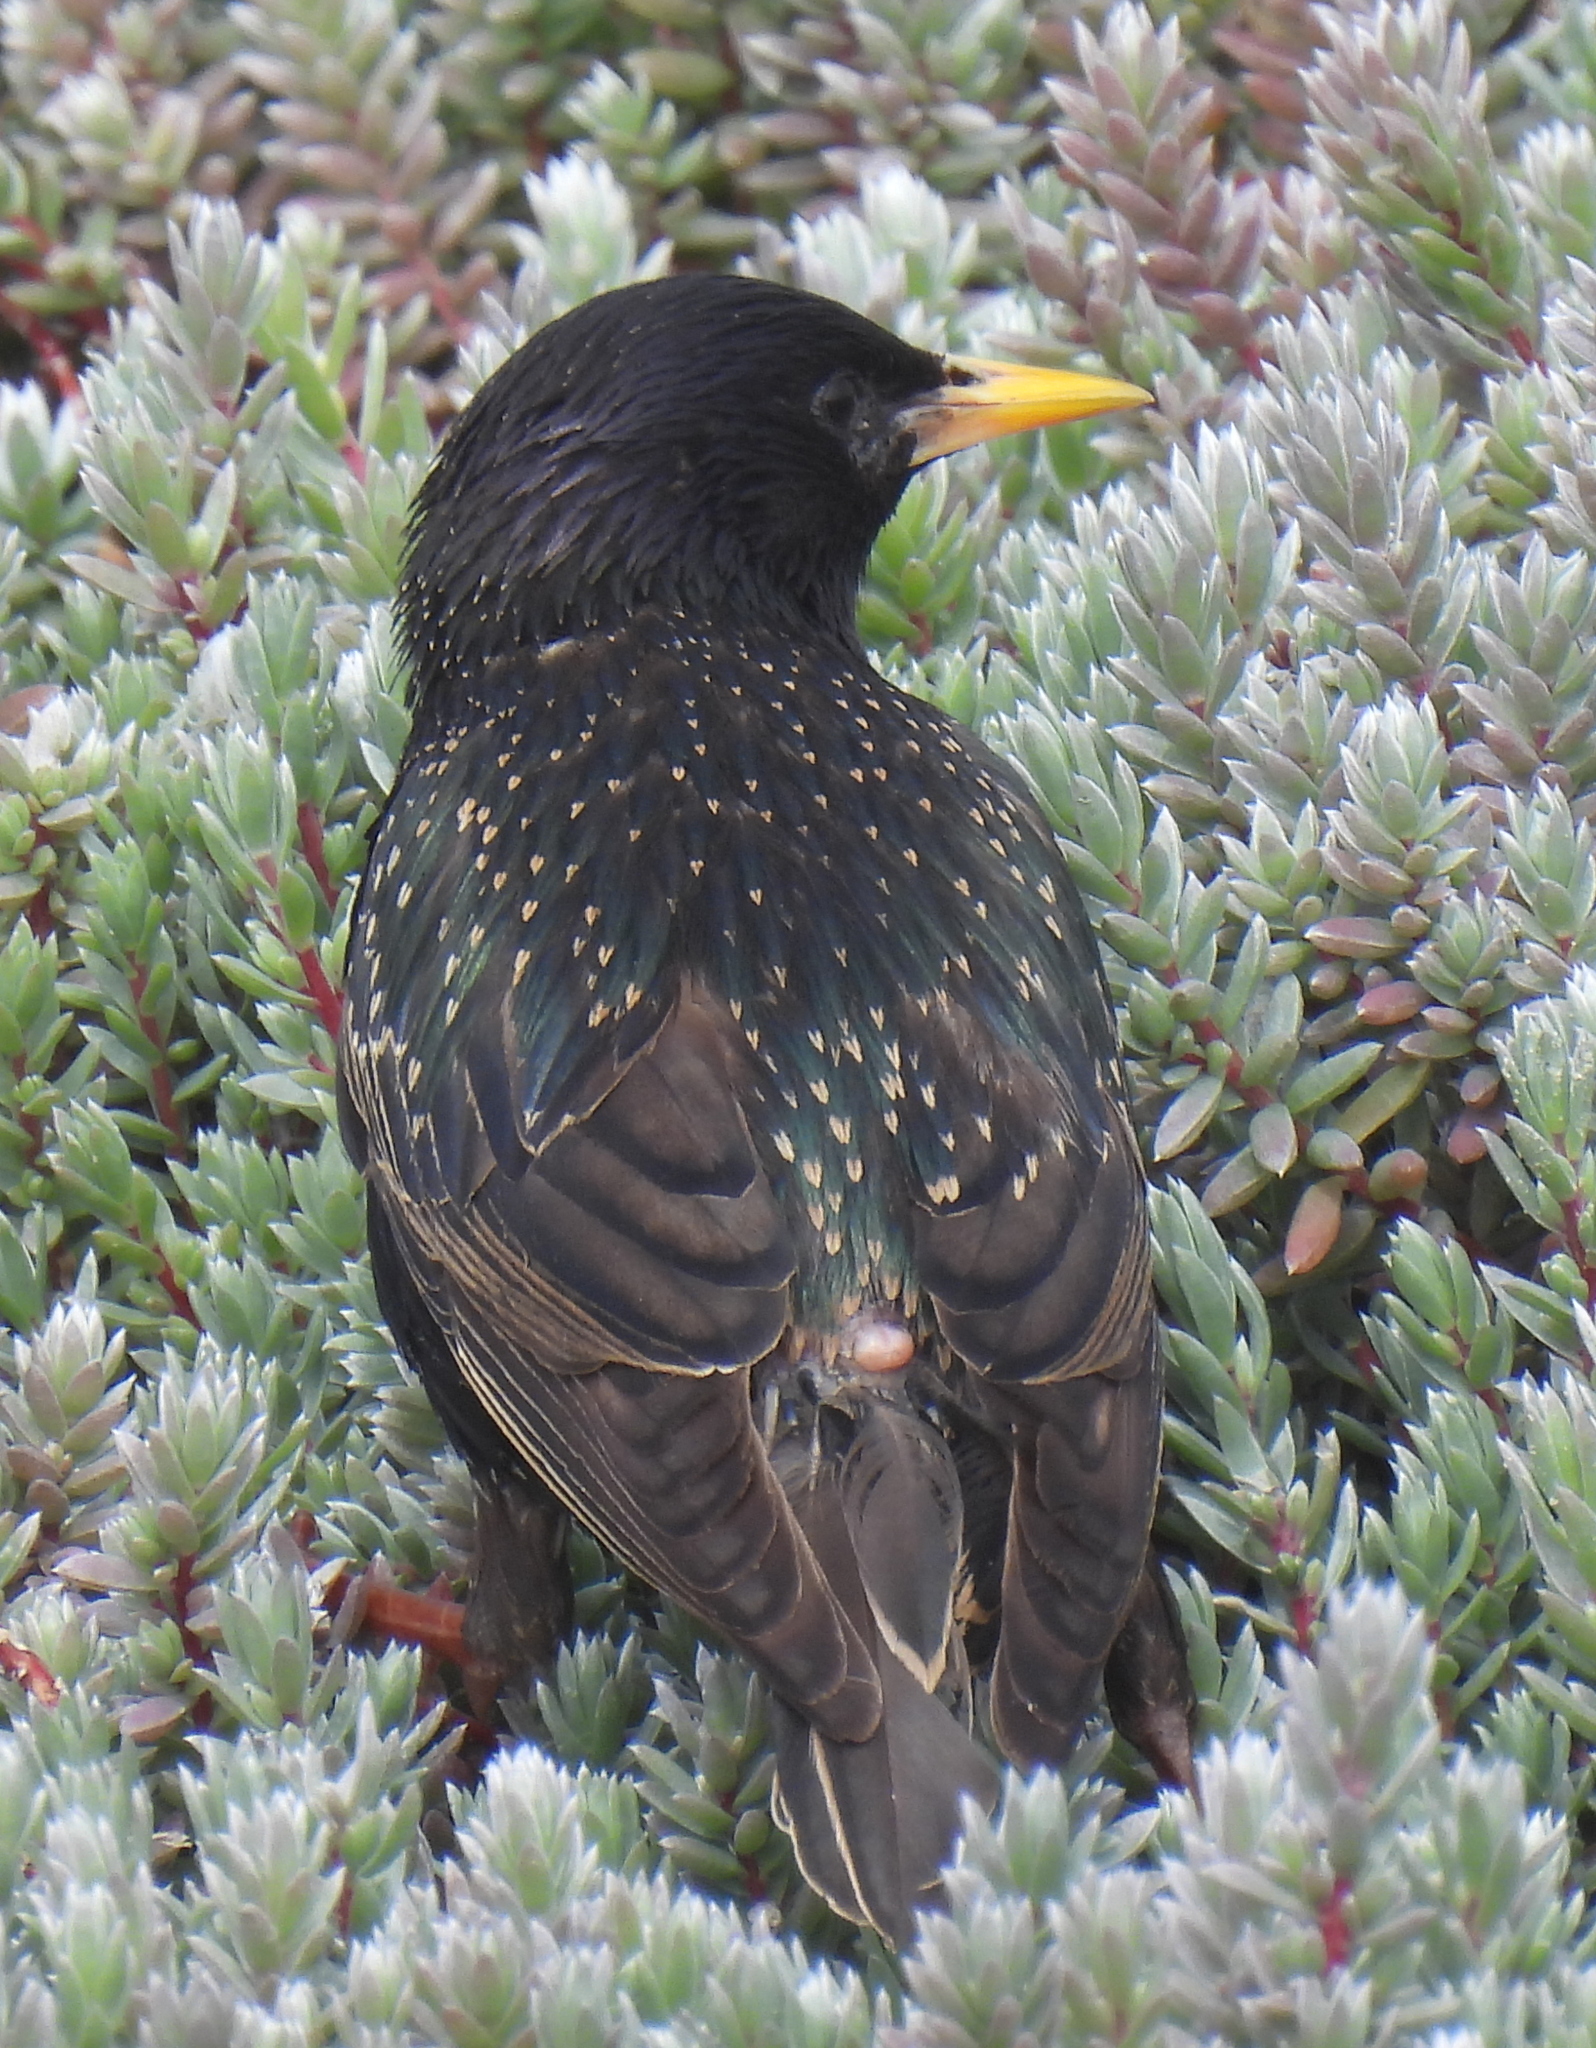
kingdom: Animalia
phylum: Chordata
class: Aves
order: Passeriformes
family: Sturnidae
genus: Sturnus
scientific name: Sturnus vulgaris
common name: Common starling
